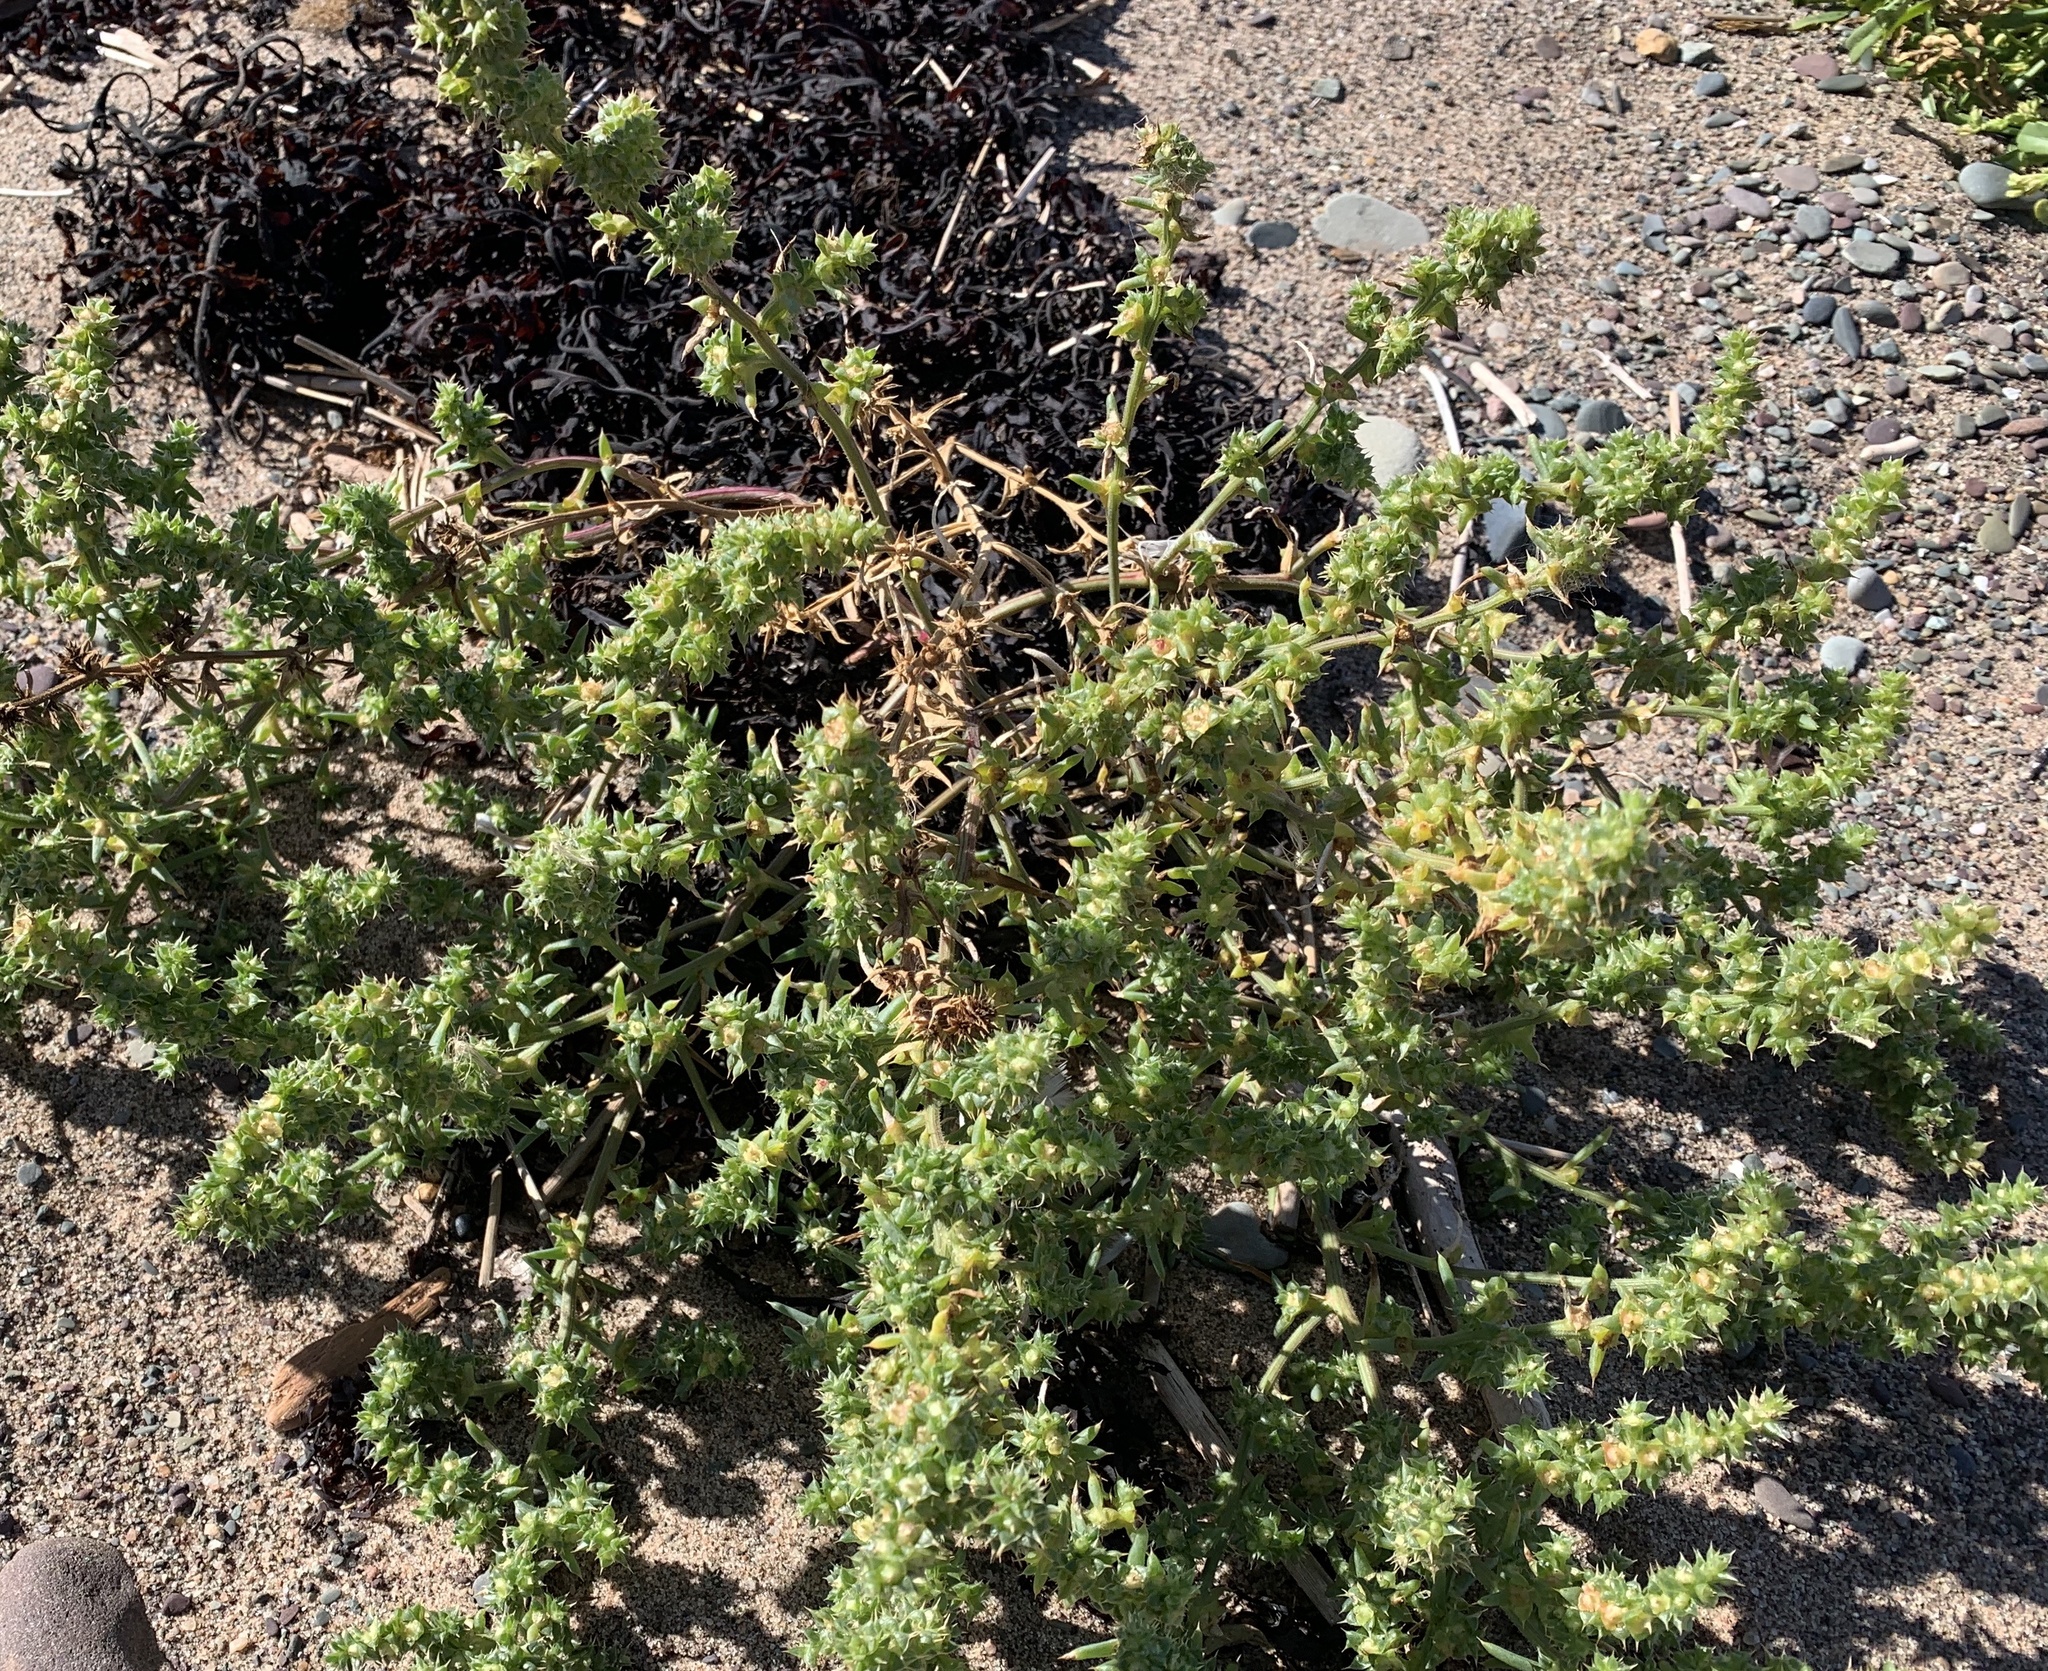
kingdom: Plantae
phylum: Tracheophyta
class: Magnoliopsida
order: Caryophyllales
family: Amaranthaceae
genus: Salsola
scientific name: Salsola kali
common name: Saltwort
